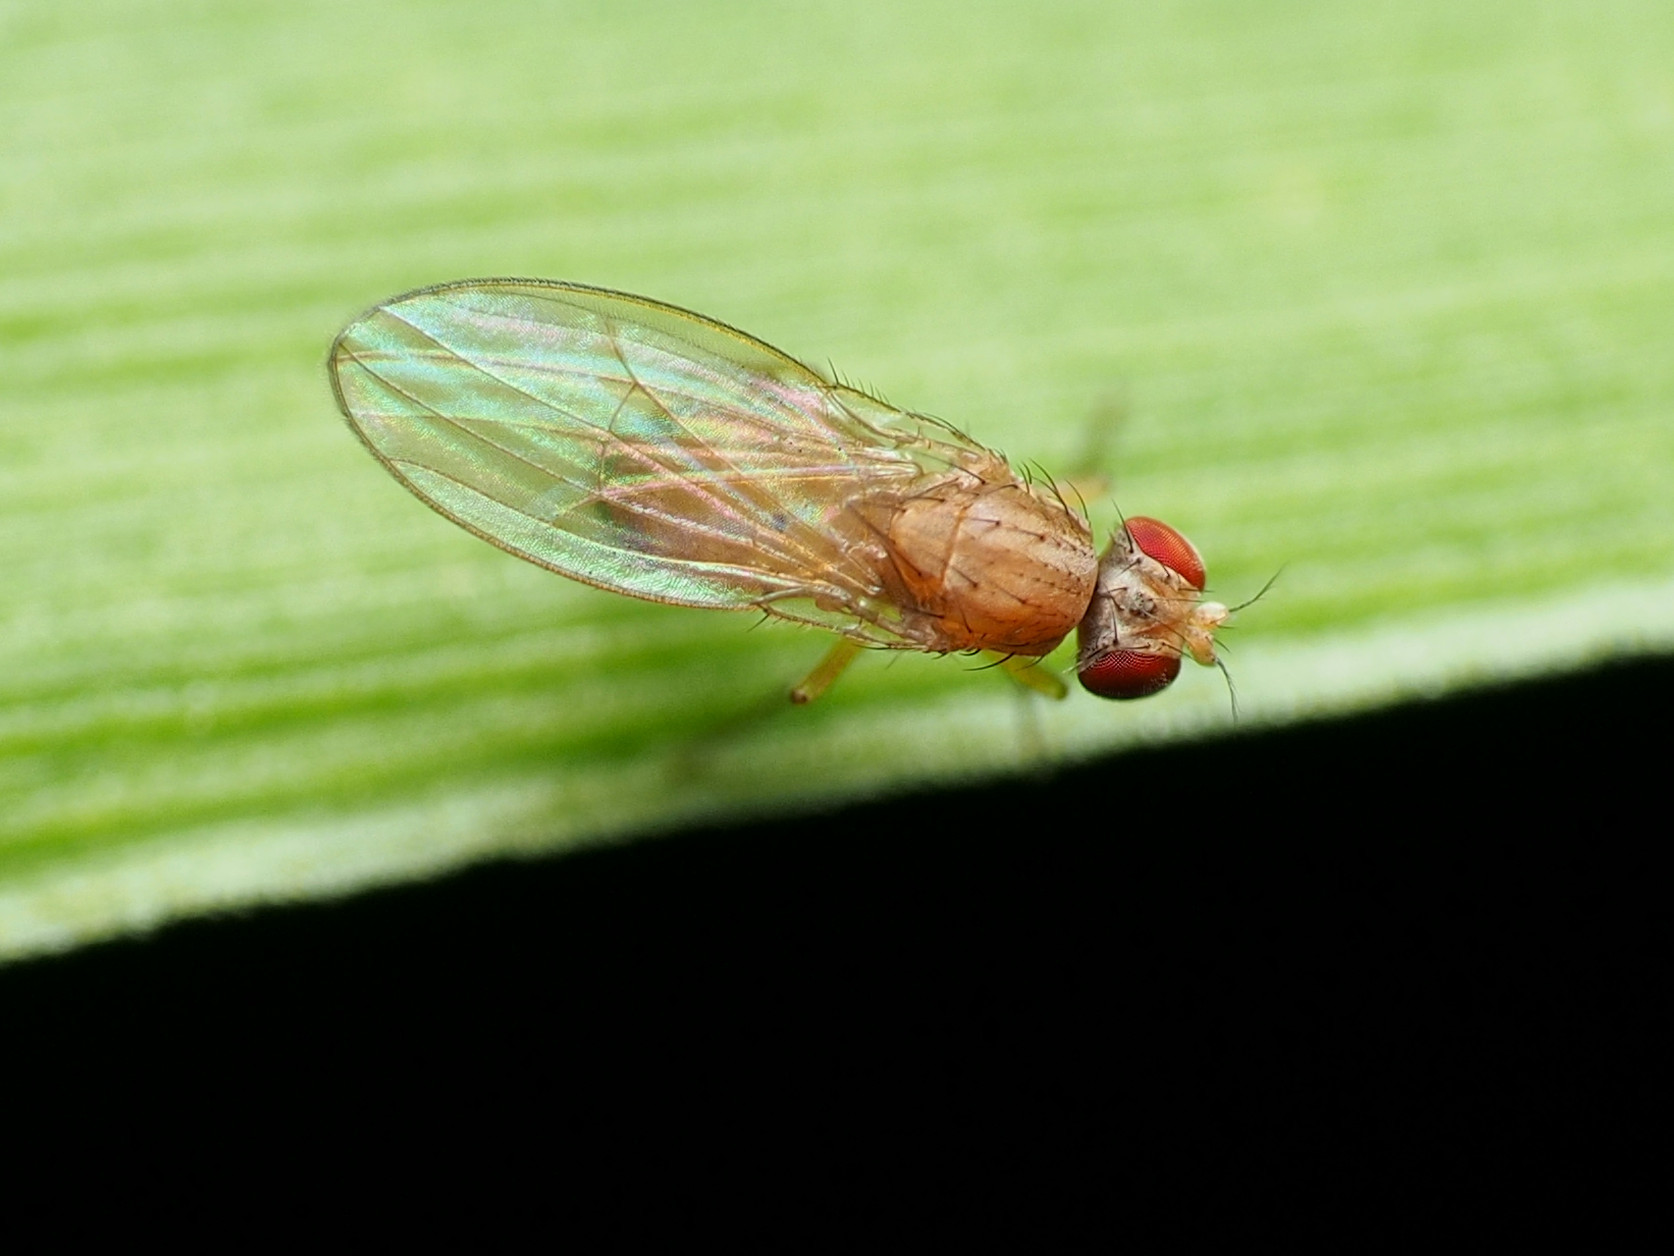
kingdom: Animalia
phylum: Arthropoda
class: Insecta
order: Diptera
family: Drosophilidae
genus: Scaptomyza
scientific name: Scaptomyza pallida
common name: Pomace fly
